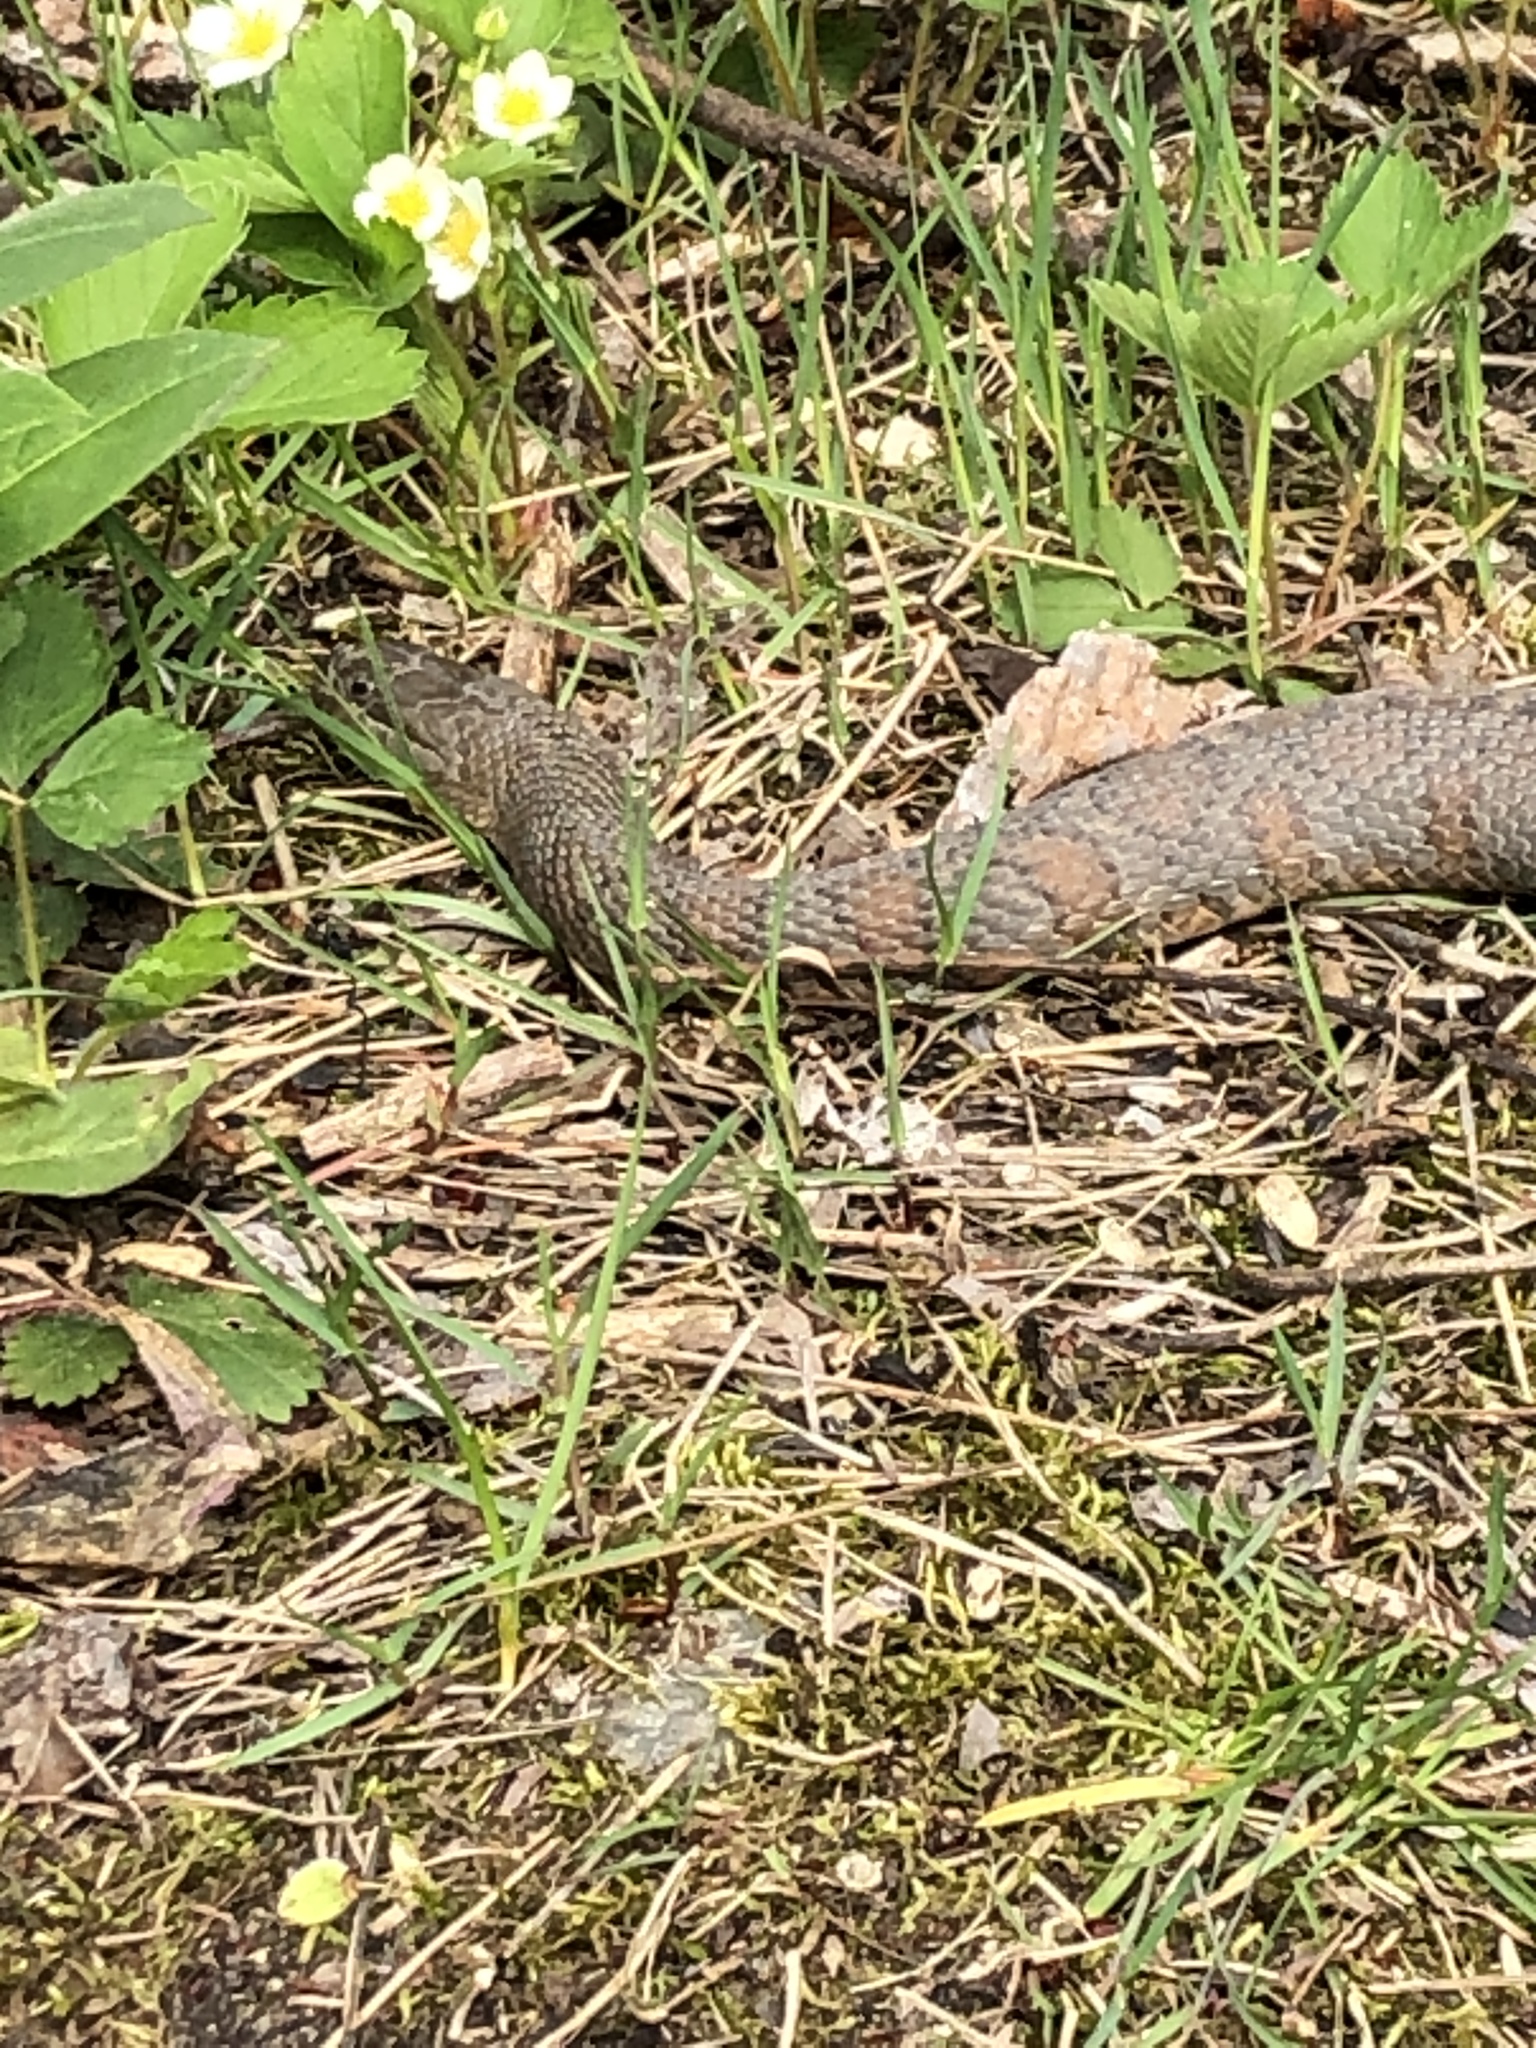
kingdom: Animalia
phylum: Chordata
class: Squamata
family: Colubridae
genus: Nerodia
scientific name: Nerodia sipedon
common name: Northern water snake
